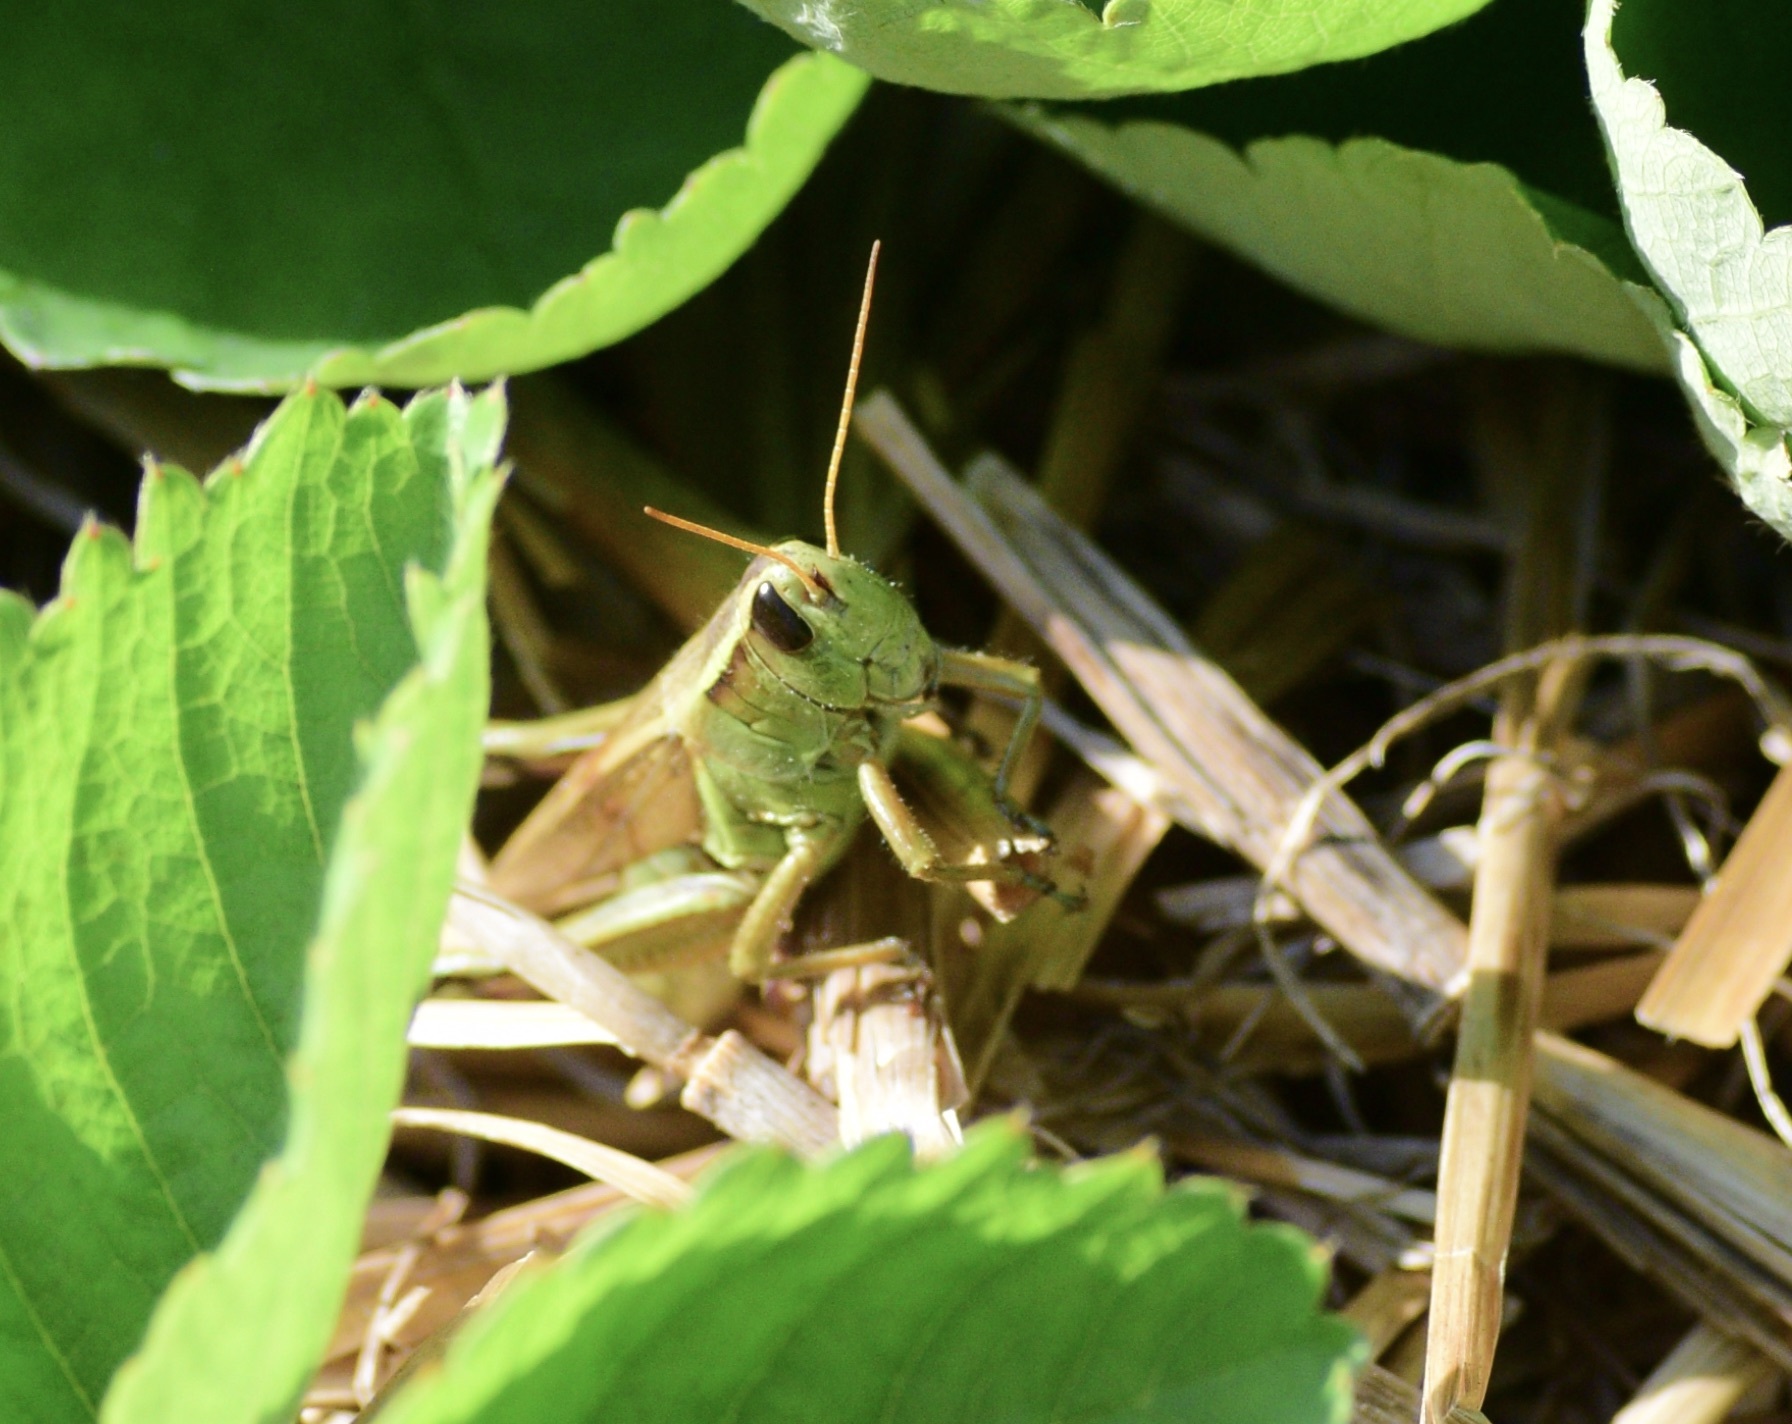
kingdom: Animalia
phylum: Arthropoda
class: Insecta
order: Orthoptera
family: Acrididae
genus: Melanoplus
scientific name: Melanoplus bivittatus
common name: Two-striped grasshopper
